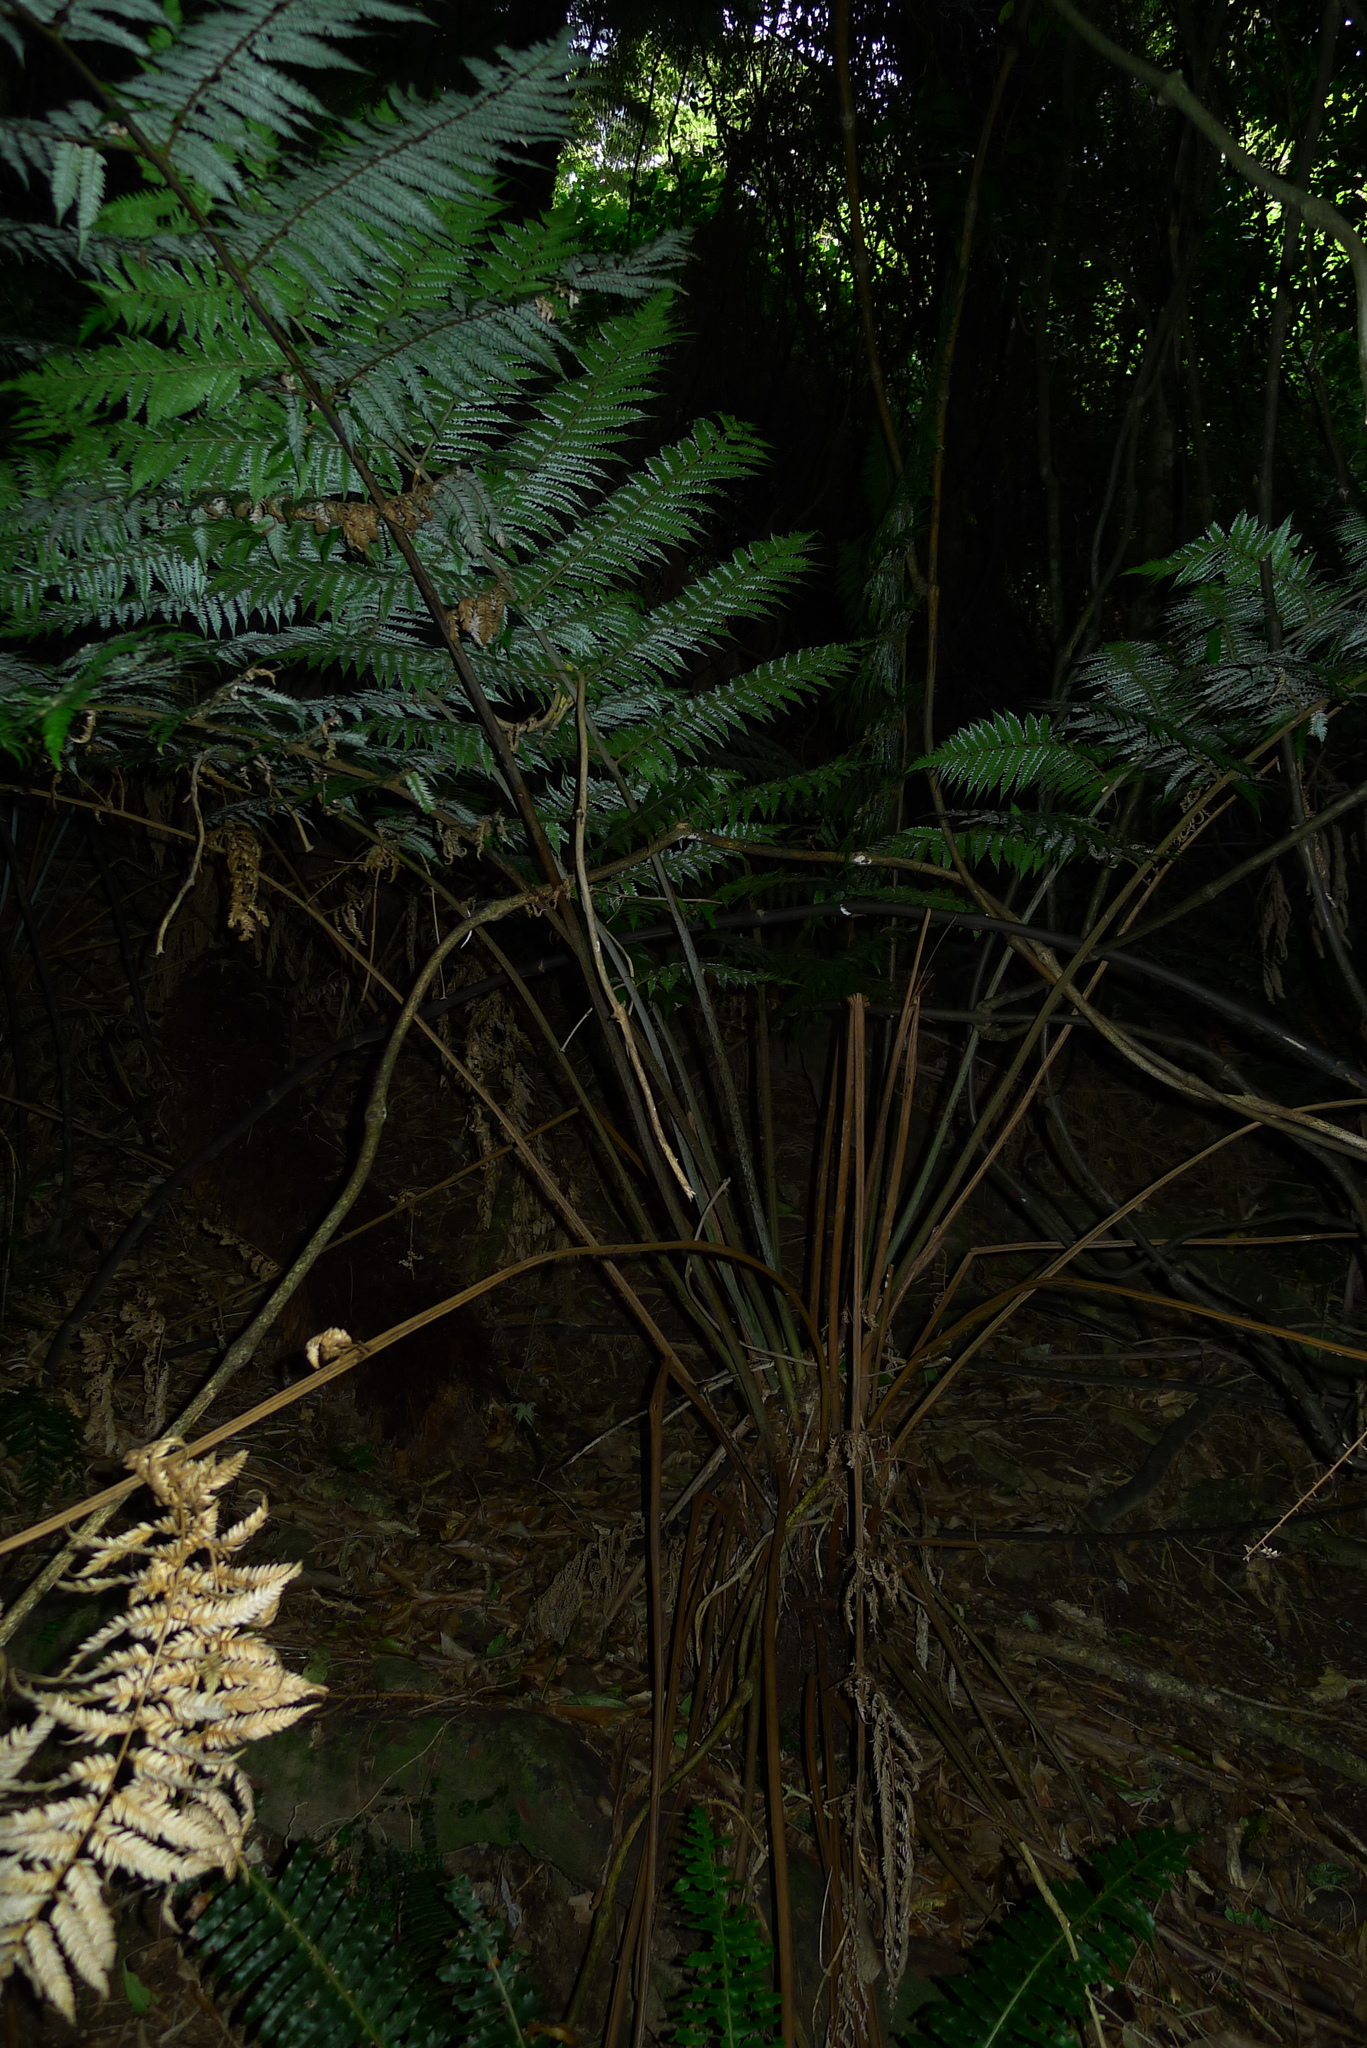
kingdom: Plantae
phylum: Tracheophyta
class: Polypodiopsida
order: Cyatheales
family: Cyatheaceae
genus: Alsophila
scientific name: Alsophila dealbata
